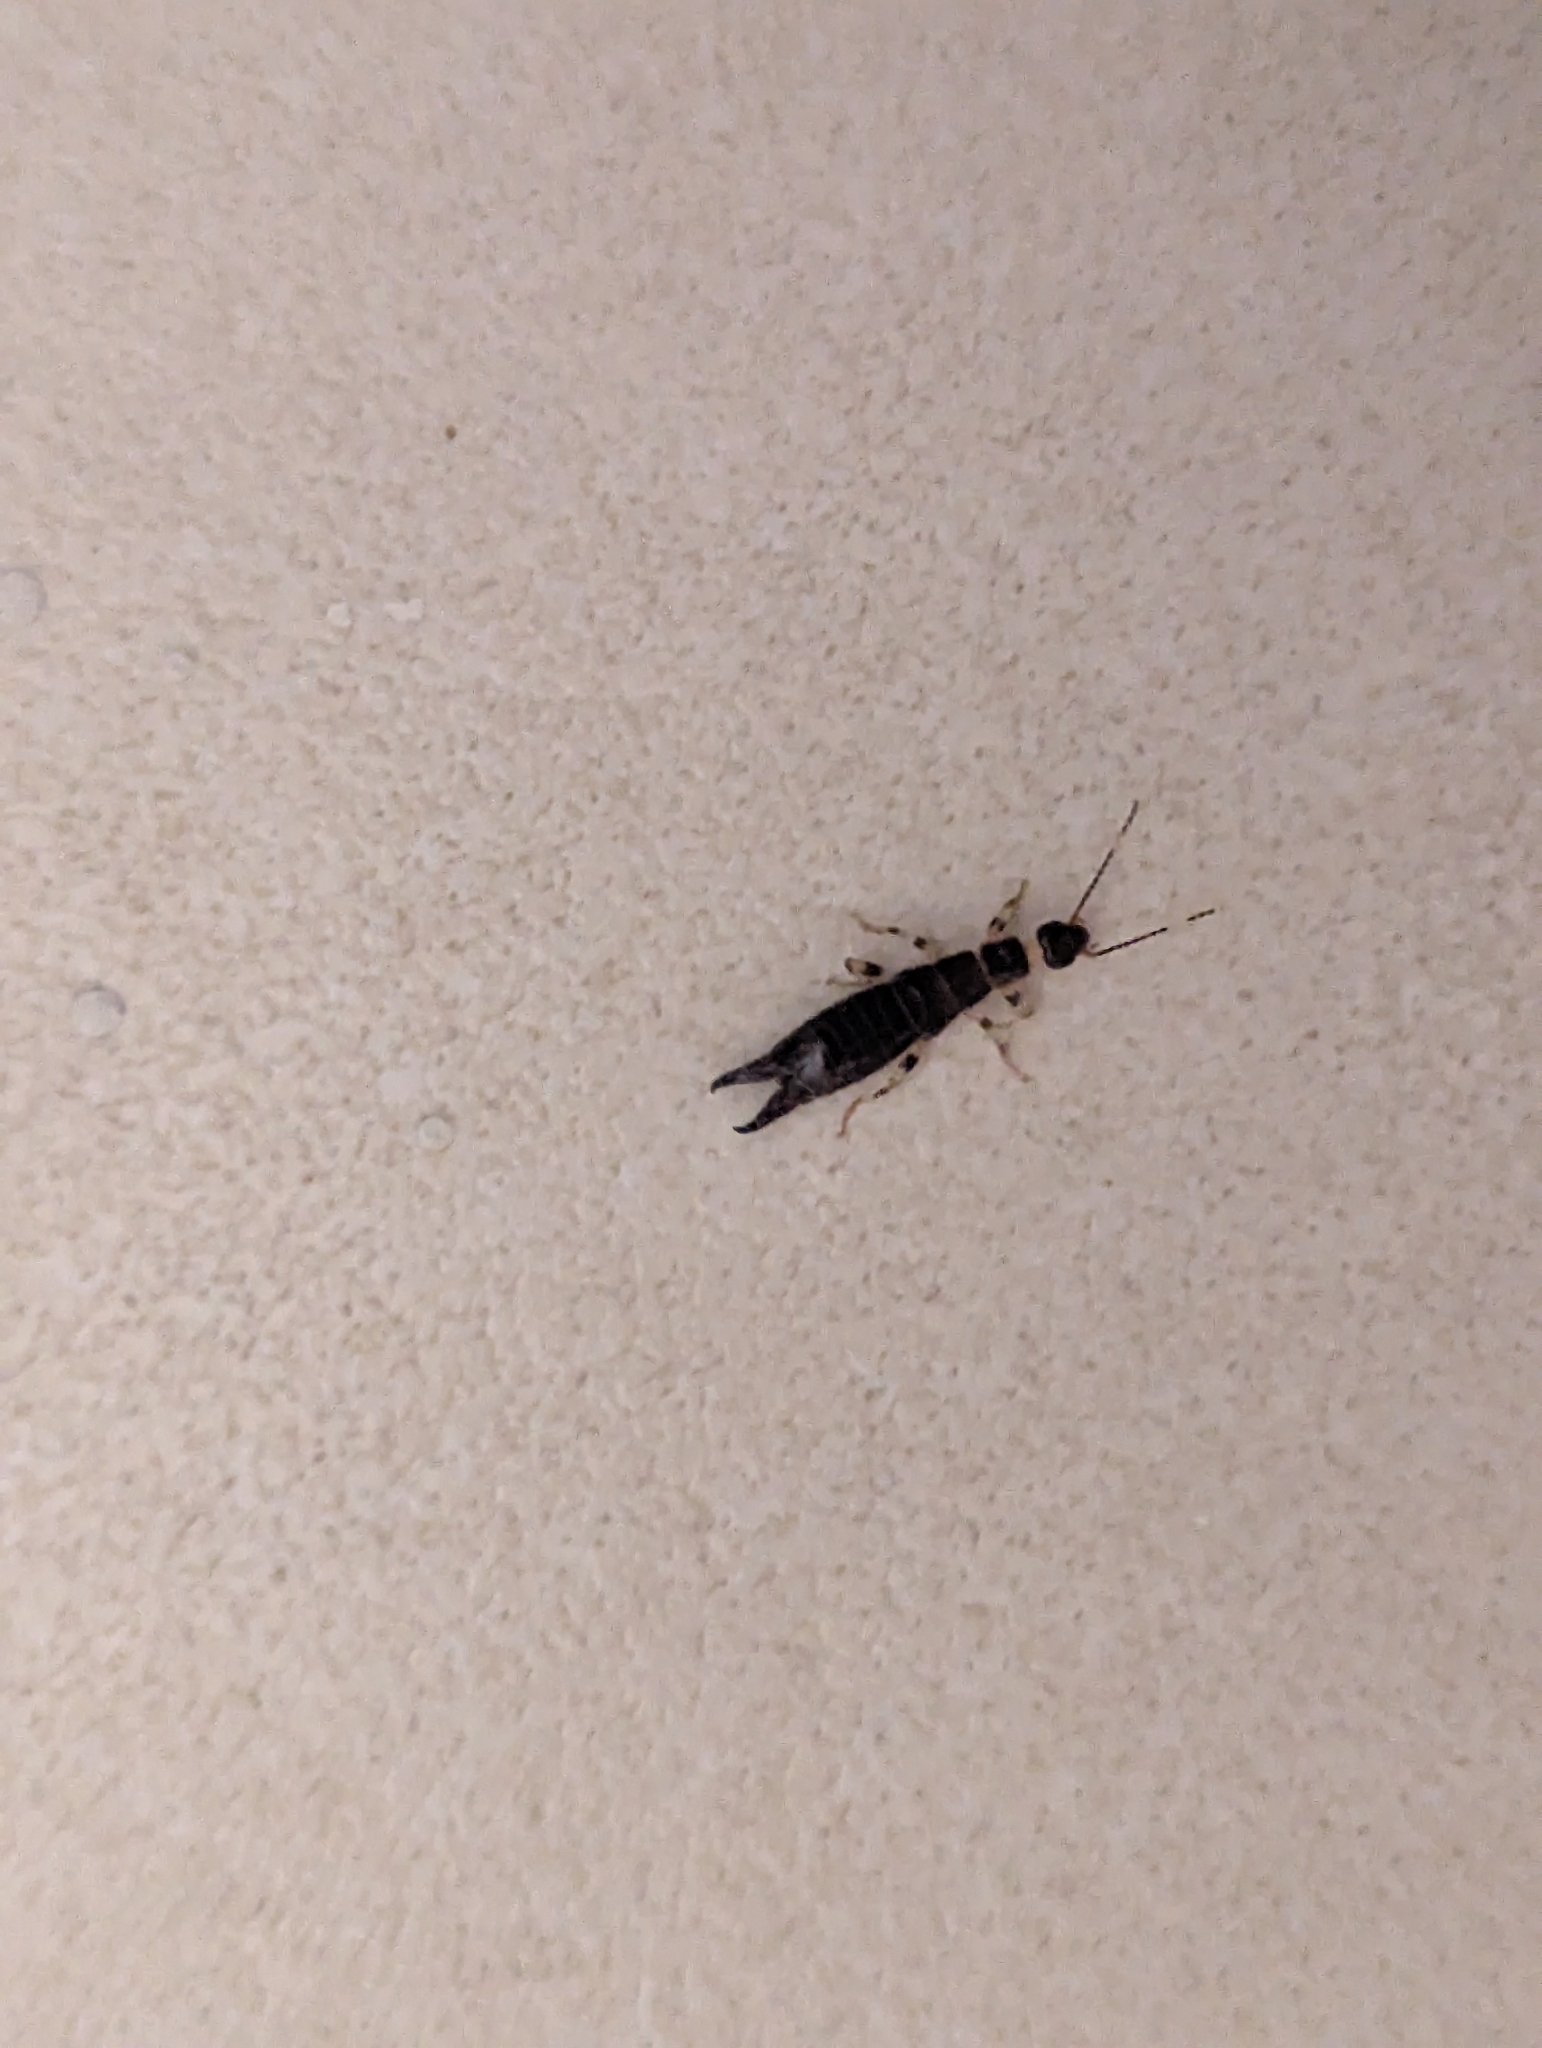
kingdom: Animalia
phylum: Arthropoda
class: Insecta
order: Dermaptera
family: Anisolabididae
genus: Euborellia
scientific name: Euborellia annulipes
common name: Ringlegged earwig
